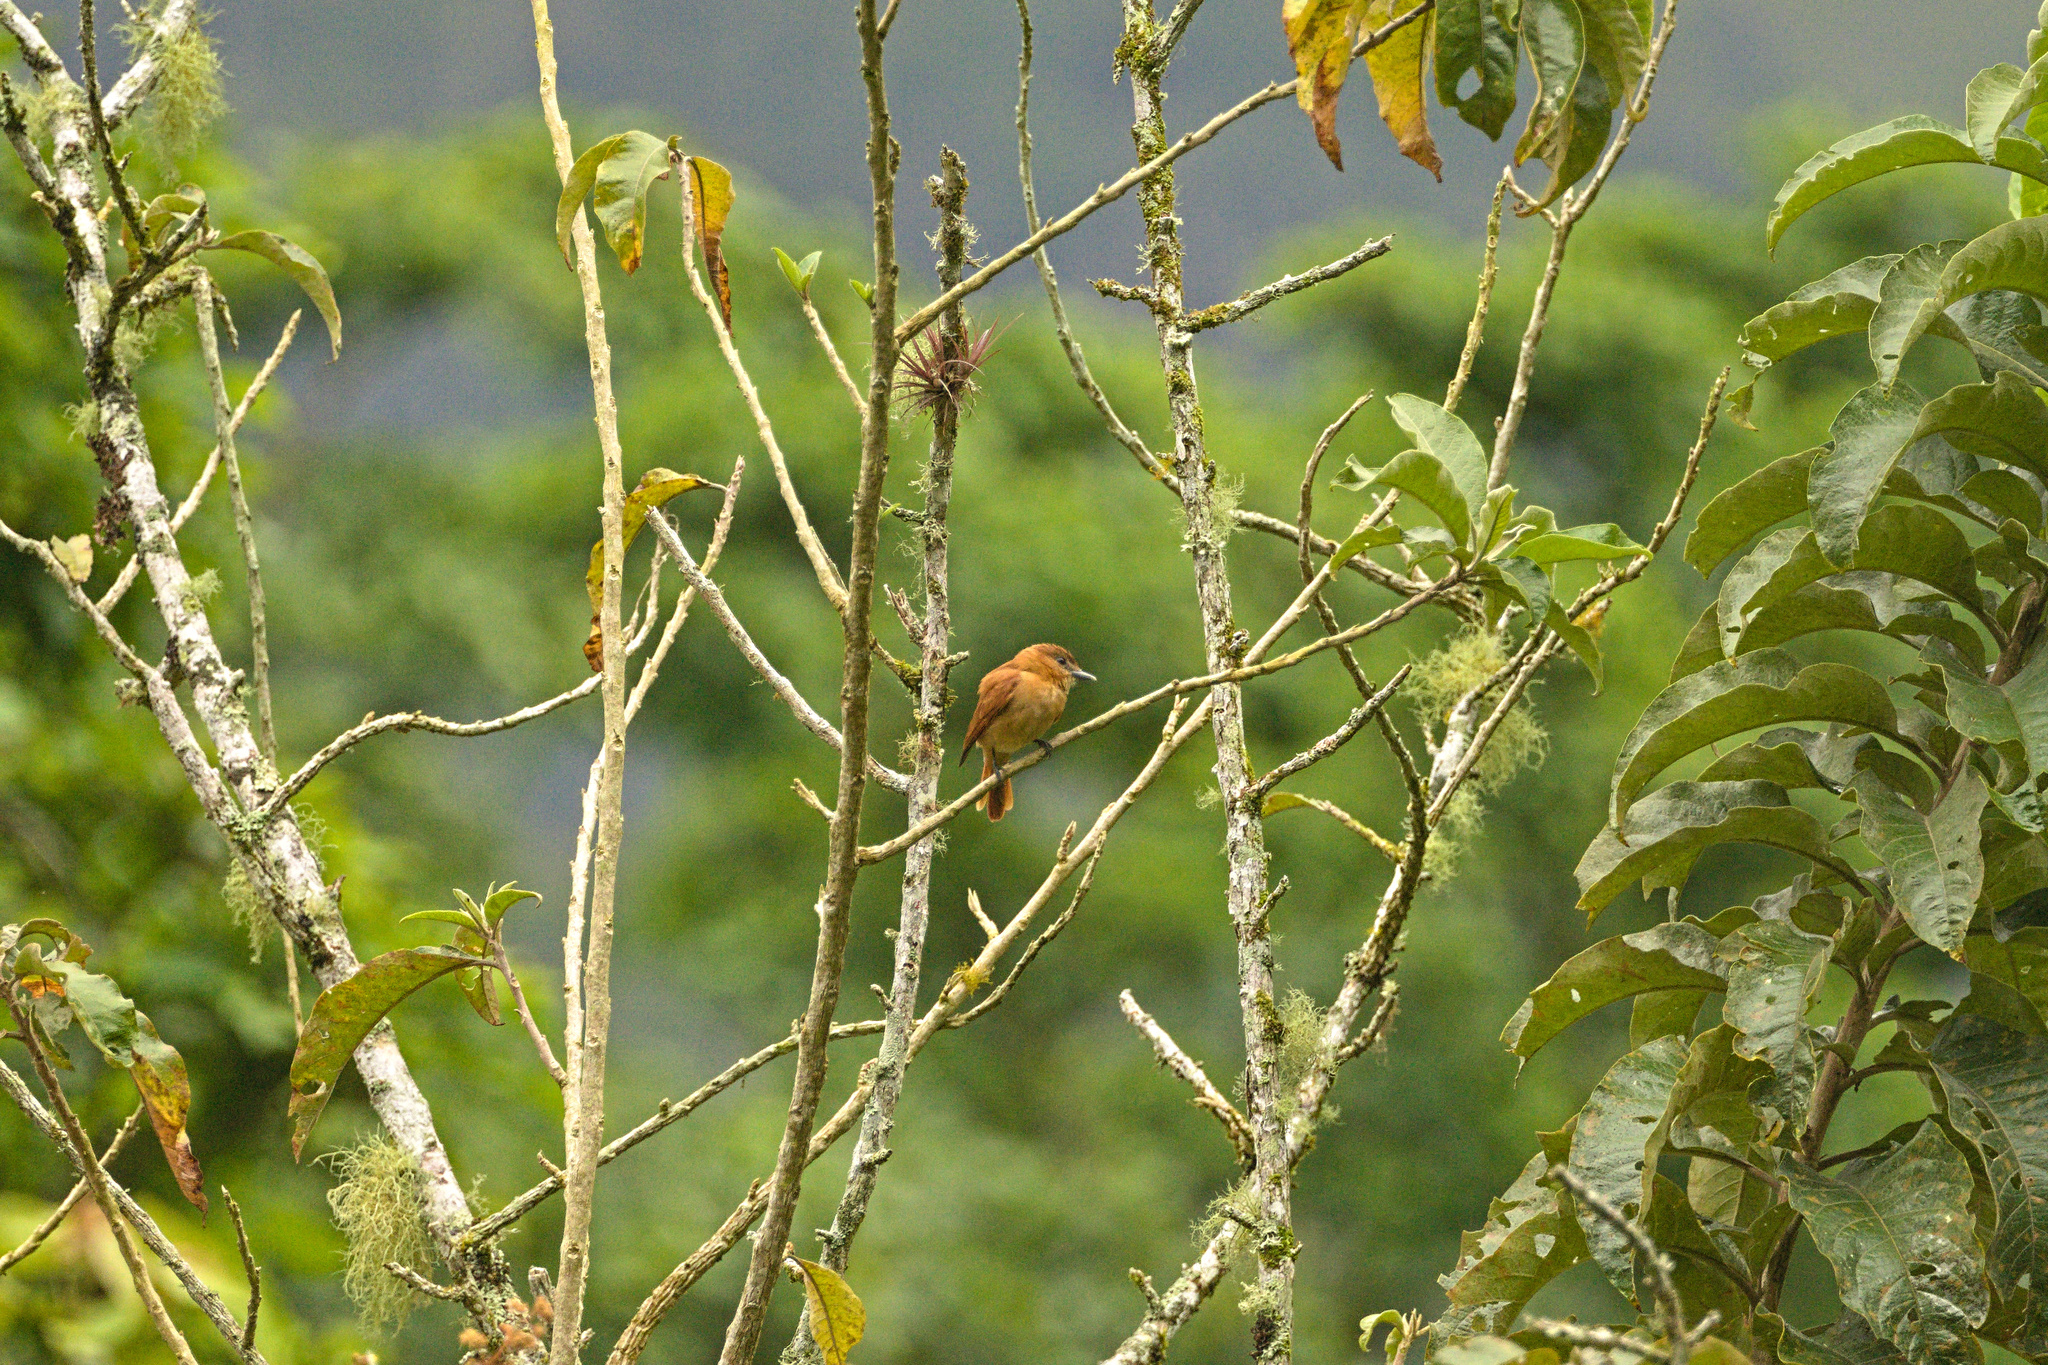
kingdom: Animalia
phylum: Chordata
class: Aves
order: Passeriformes
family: Cotingidae
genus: Pachyramphus
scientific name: Pachyramphus cinnamomeus
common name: Cinnamon becard
